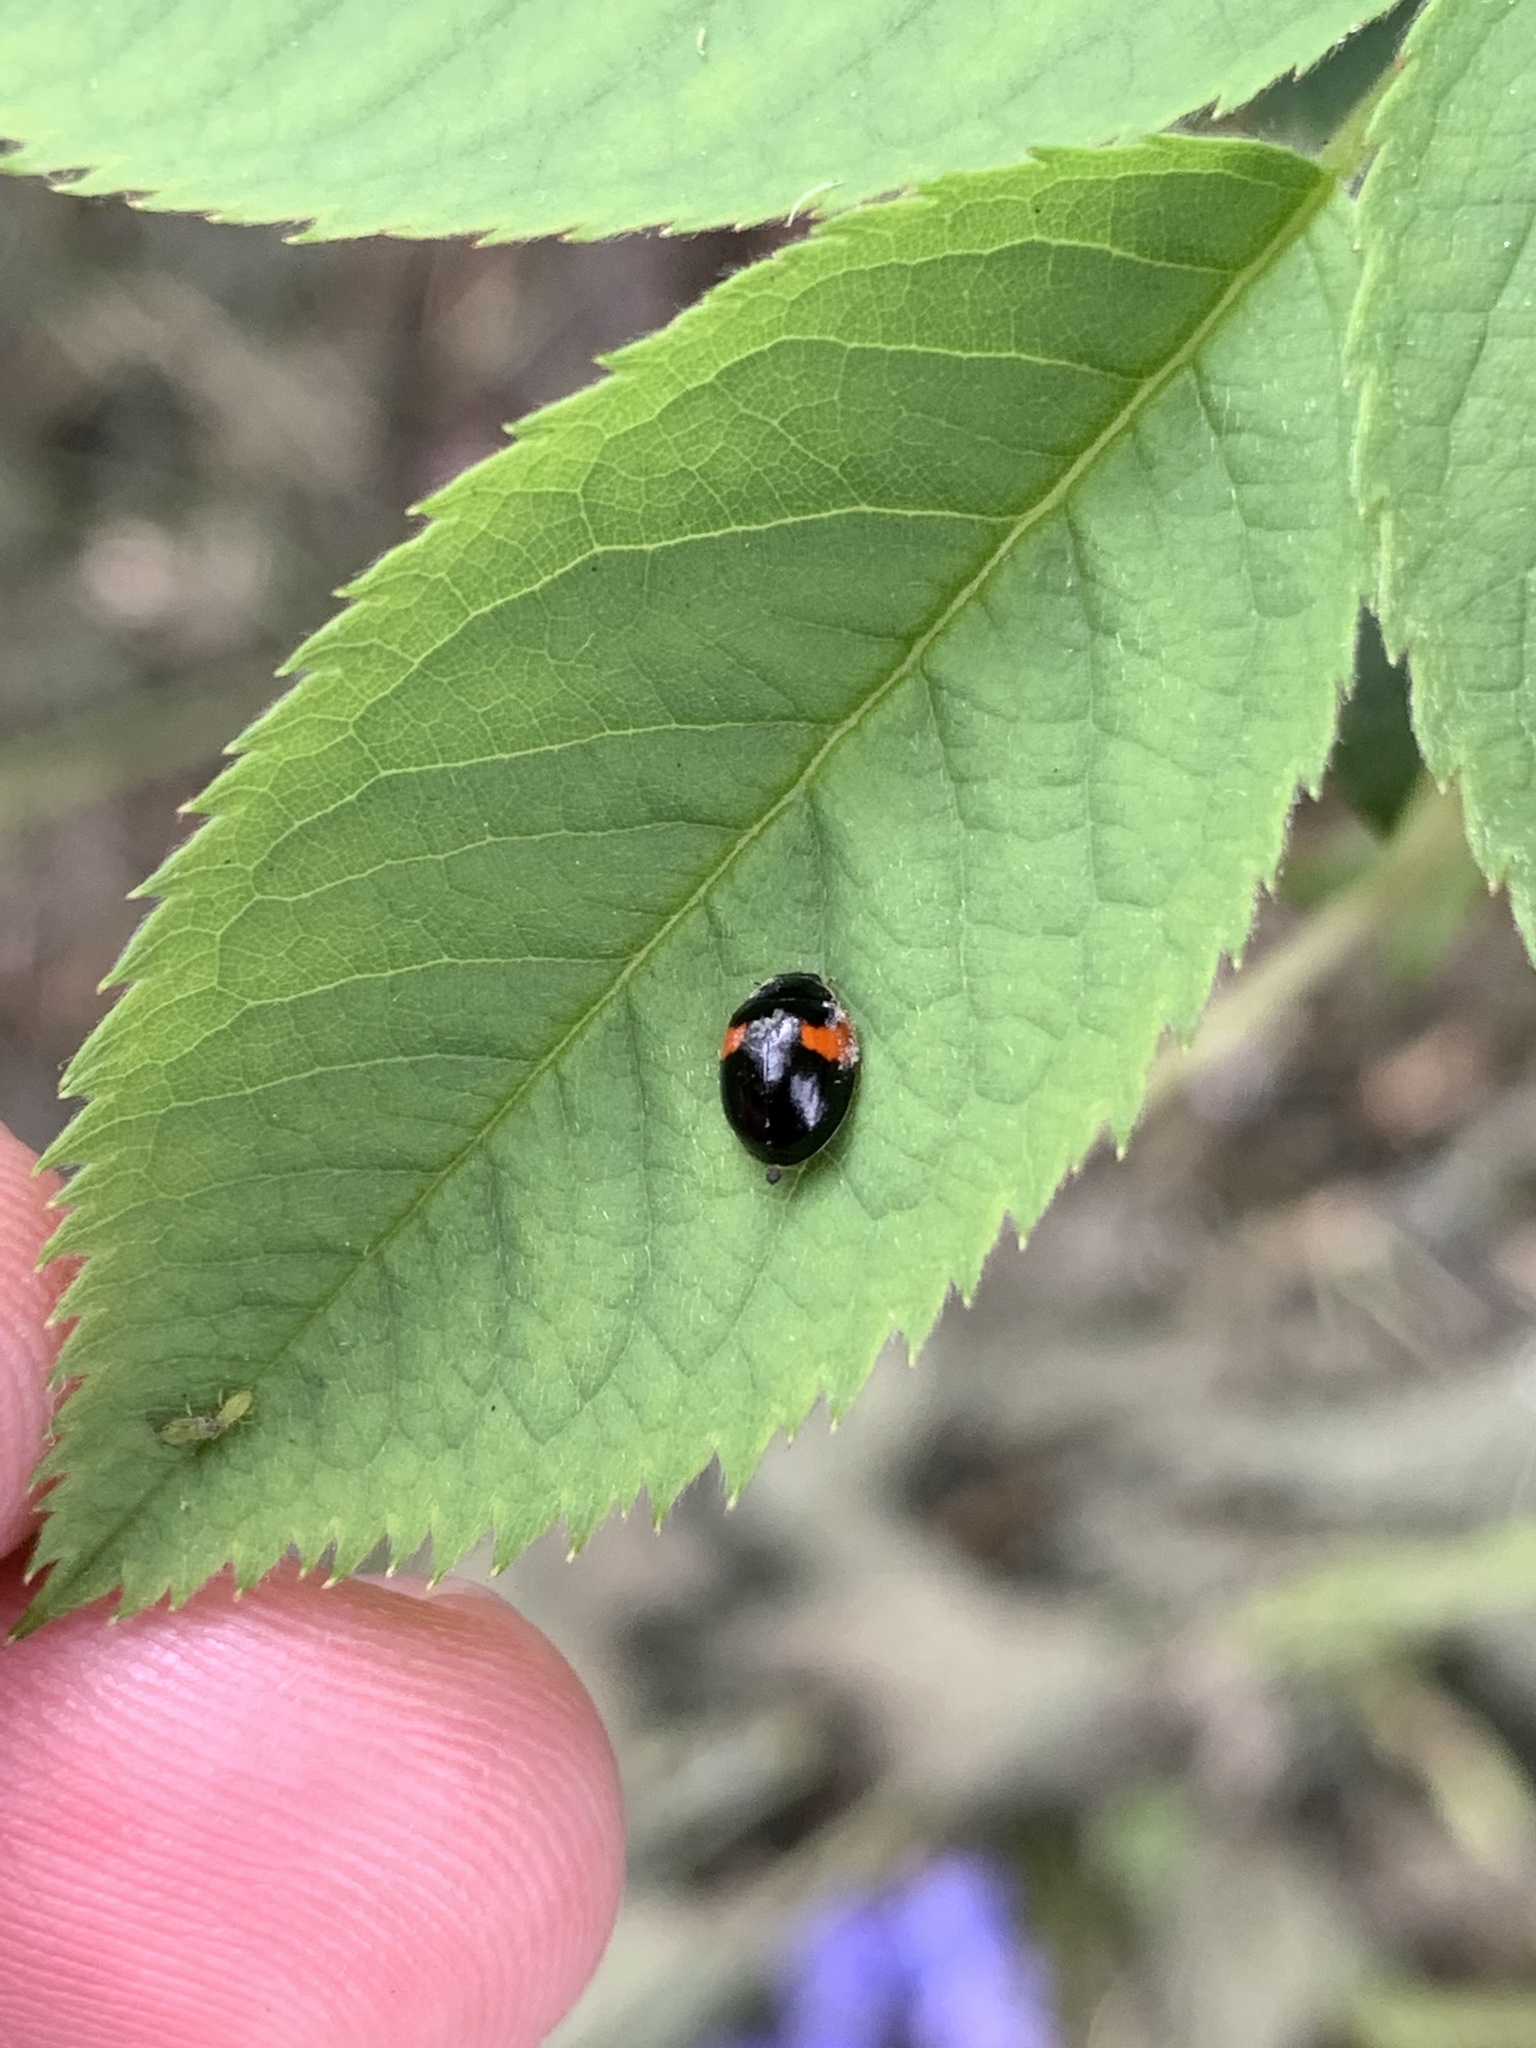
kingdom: Animalia
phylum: Arthropoda
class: Insecta
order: Coleoptera
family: Coccinellidae
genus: Adalia
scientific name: Adalia decempunctata
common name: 10-spot ladybird
